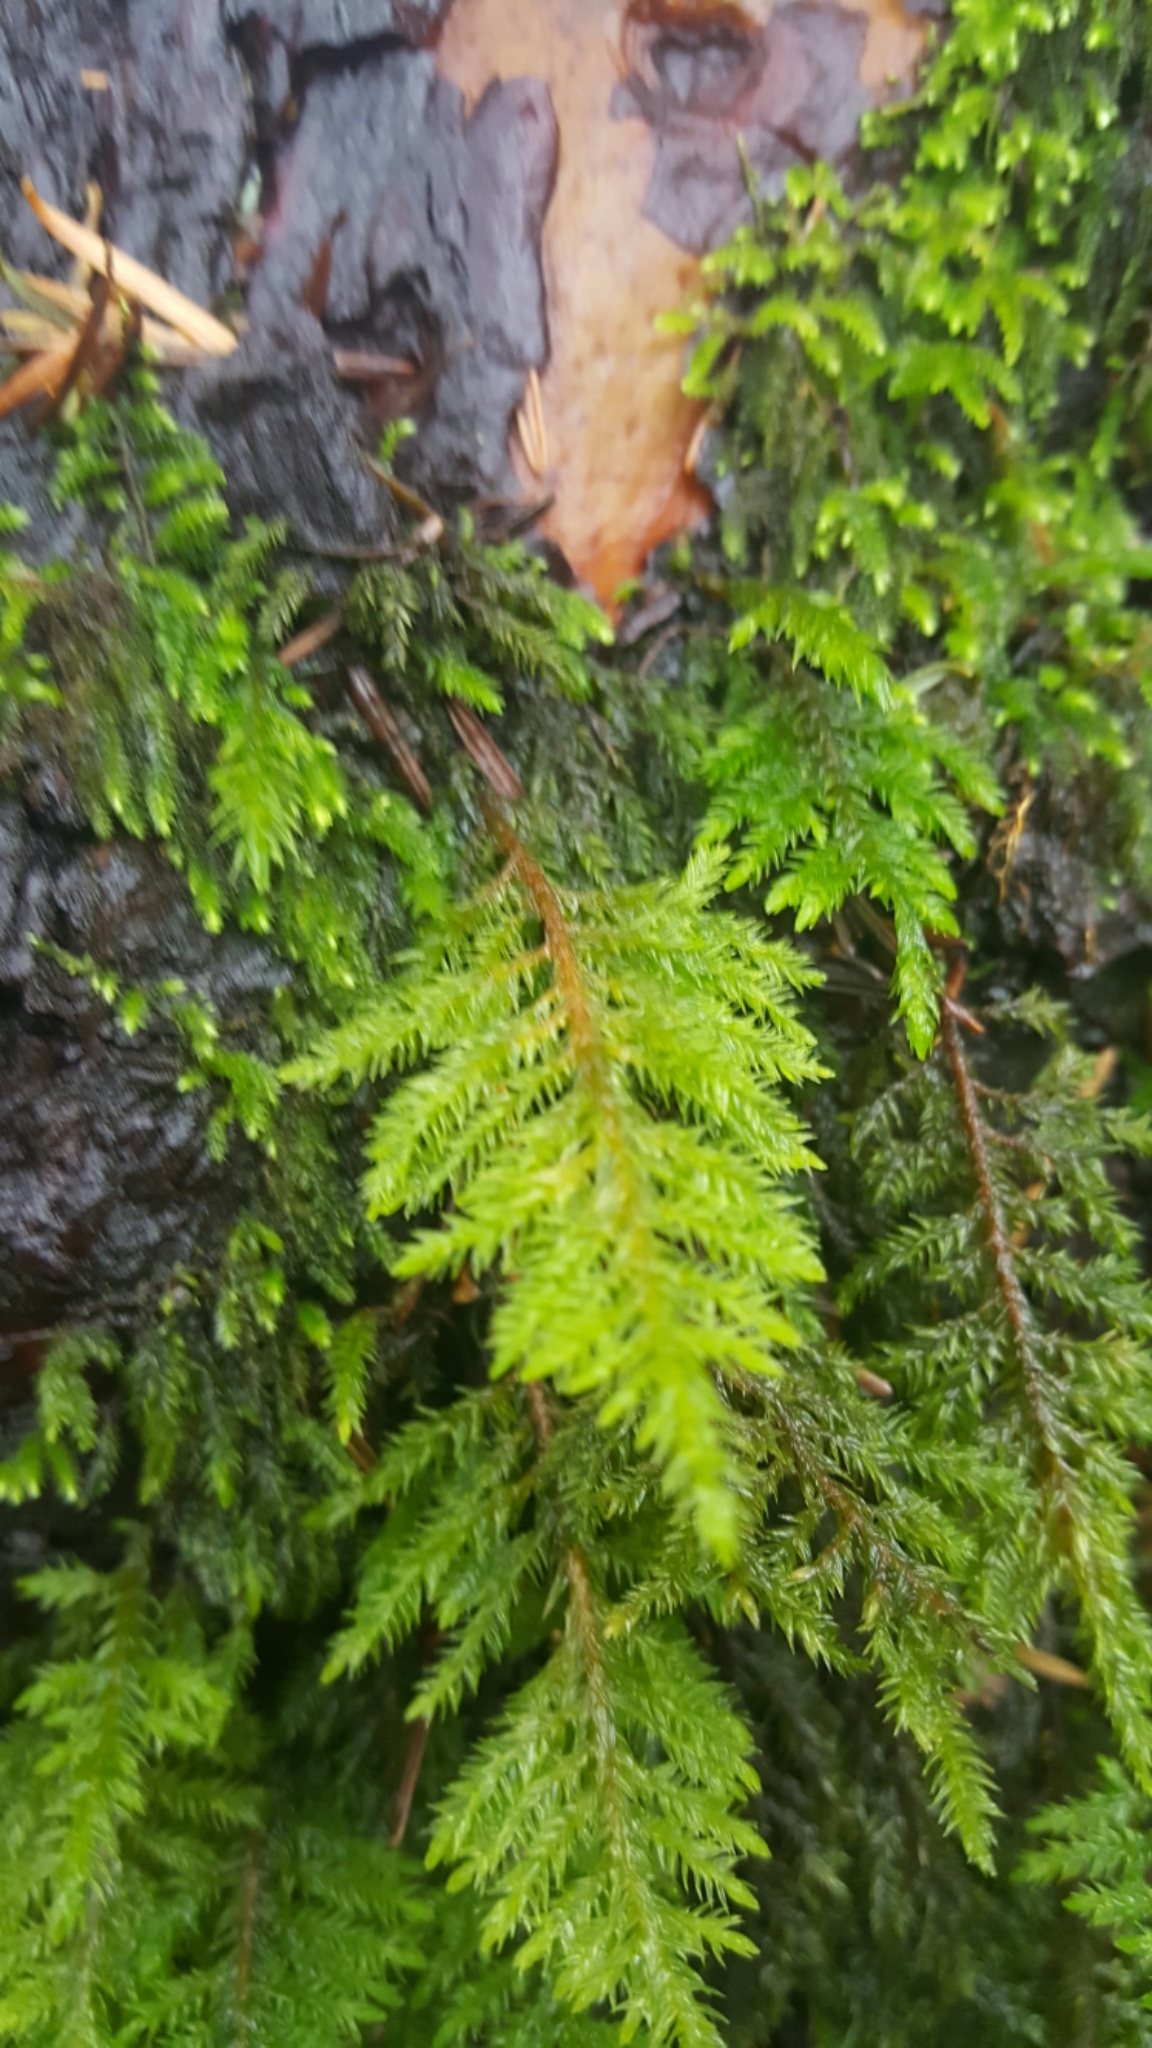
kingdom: Plantae
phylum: Bryophyta
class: Bryopsida
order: Hypnales
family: Cryphaeaceae
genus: Dendroalsia
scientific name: Dendroalsia abietina
